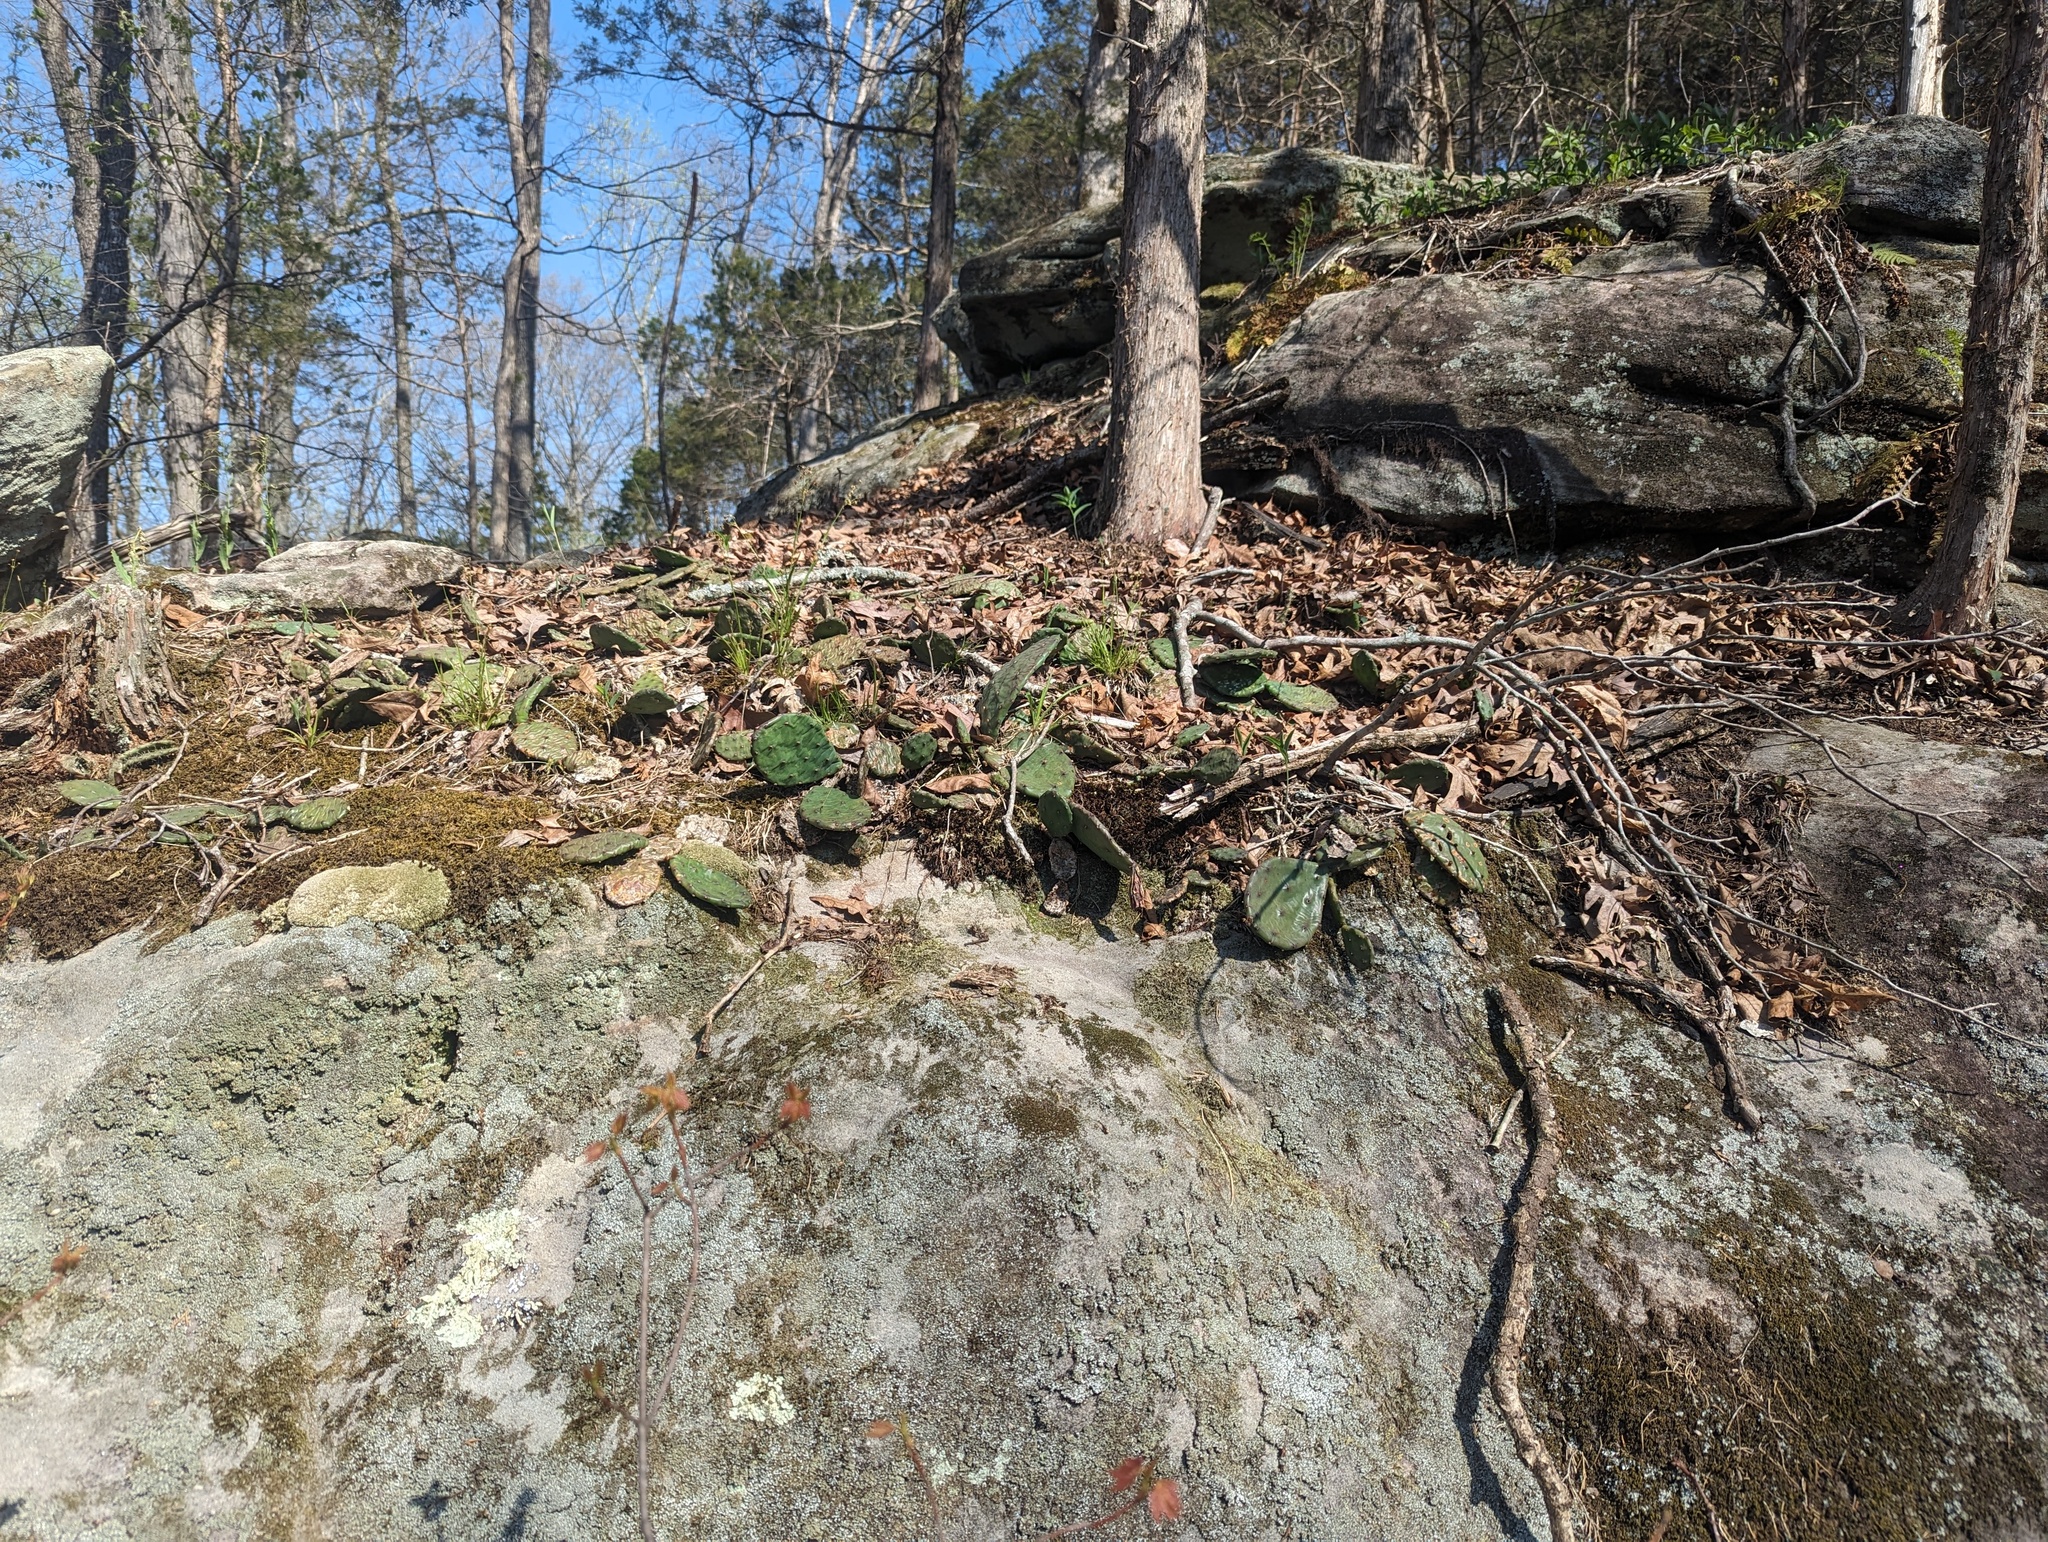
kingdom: Plantae
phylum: Tracheophyta
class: Magnoliopsida
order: Caryophyllales
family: Cactaceae
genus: Opuntia
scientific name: Opuntia humifusa
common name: Eastern prickly-pear
